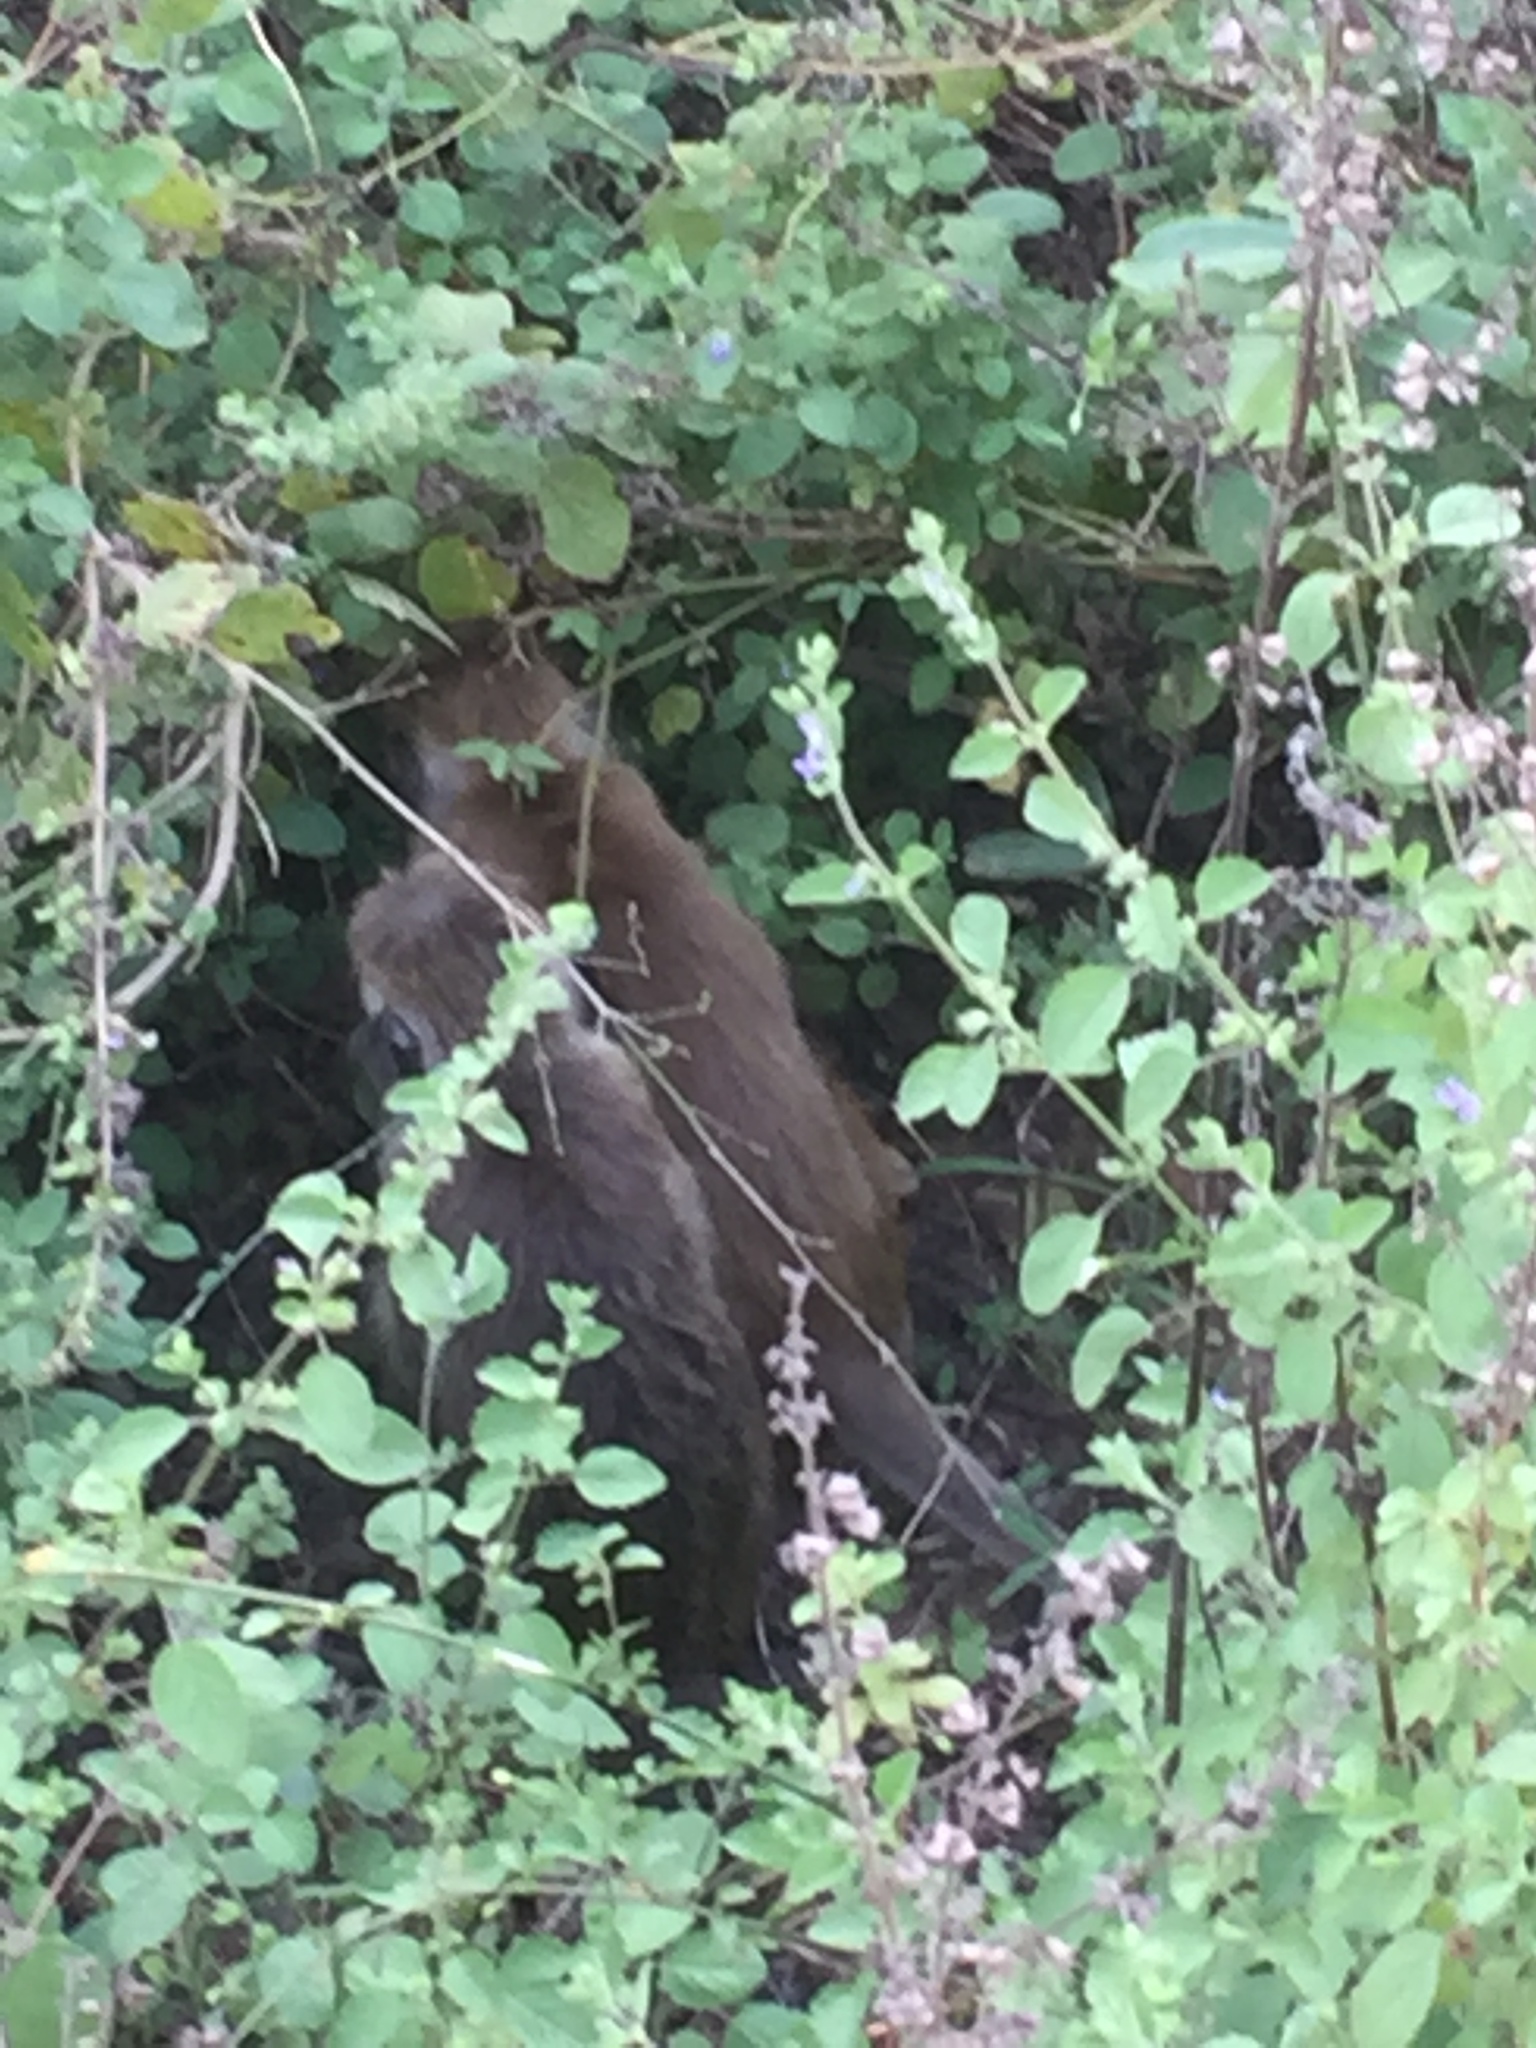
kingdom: Animalia
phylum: Chordata
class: Mammalia
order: Primates
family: Cercopithecidae
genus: Macaca
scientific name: Macaca sinica
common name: Toque macaque
